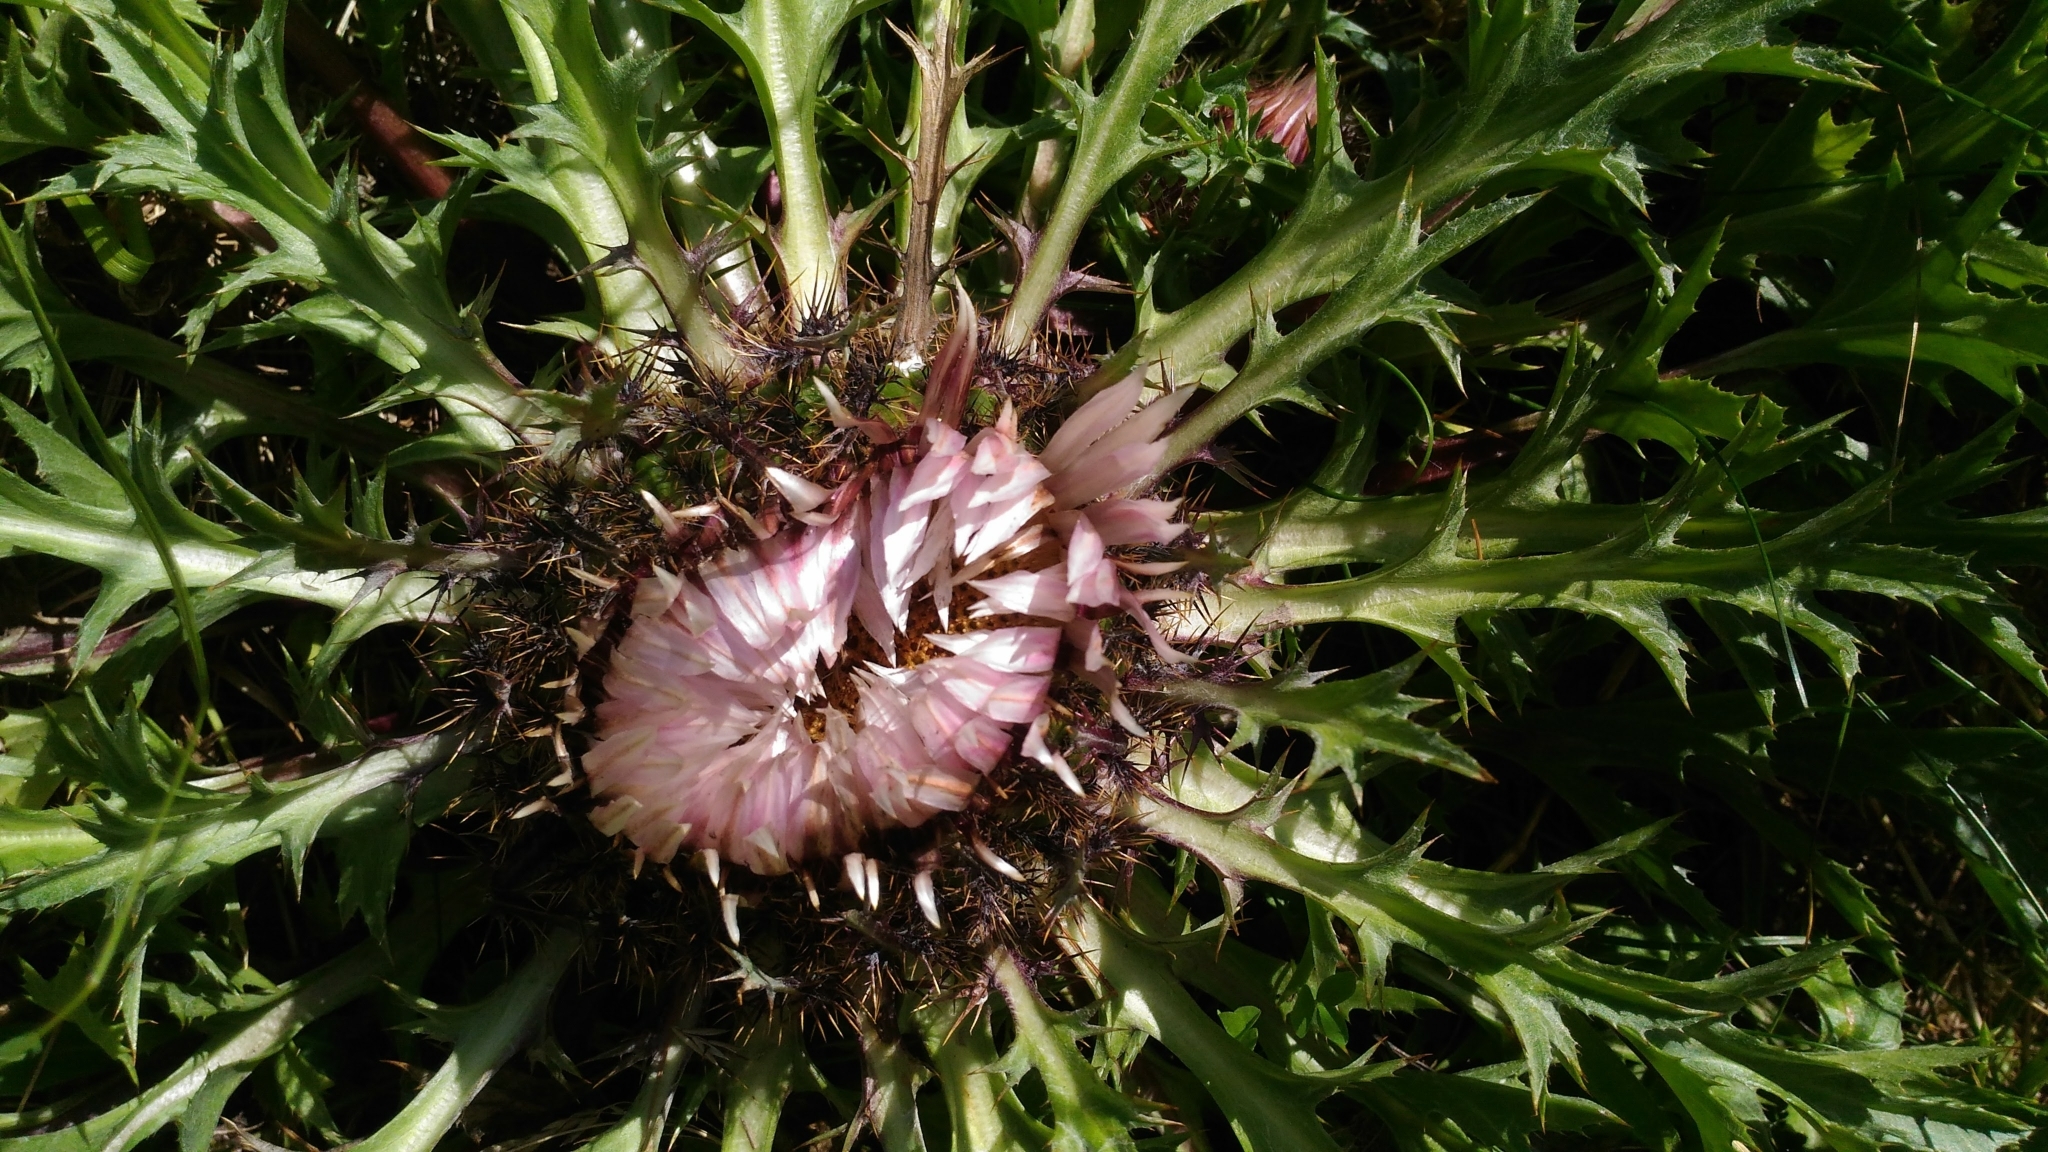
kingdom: Plantae
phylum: Tracheophyta
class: Magnoliopsida
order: Asterales
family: Asteraceae
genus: Carlina
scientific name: Carlina acaulis
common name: Stemless carline thistle
